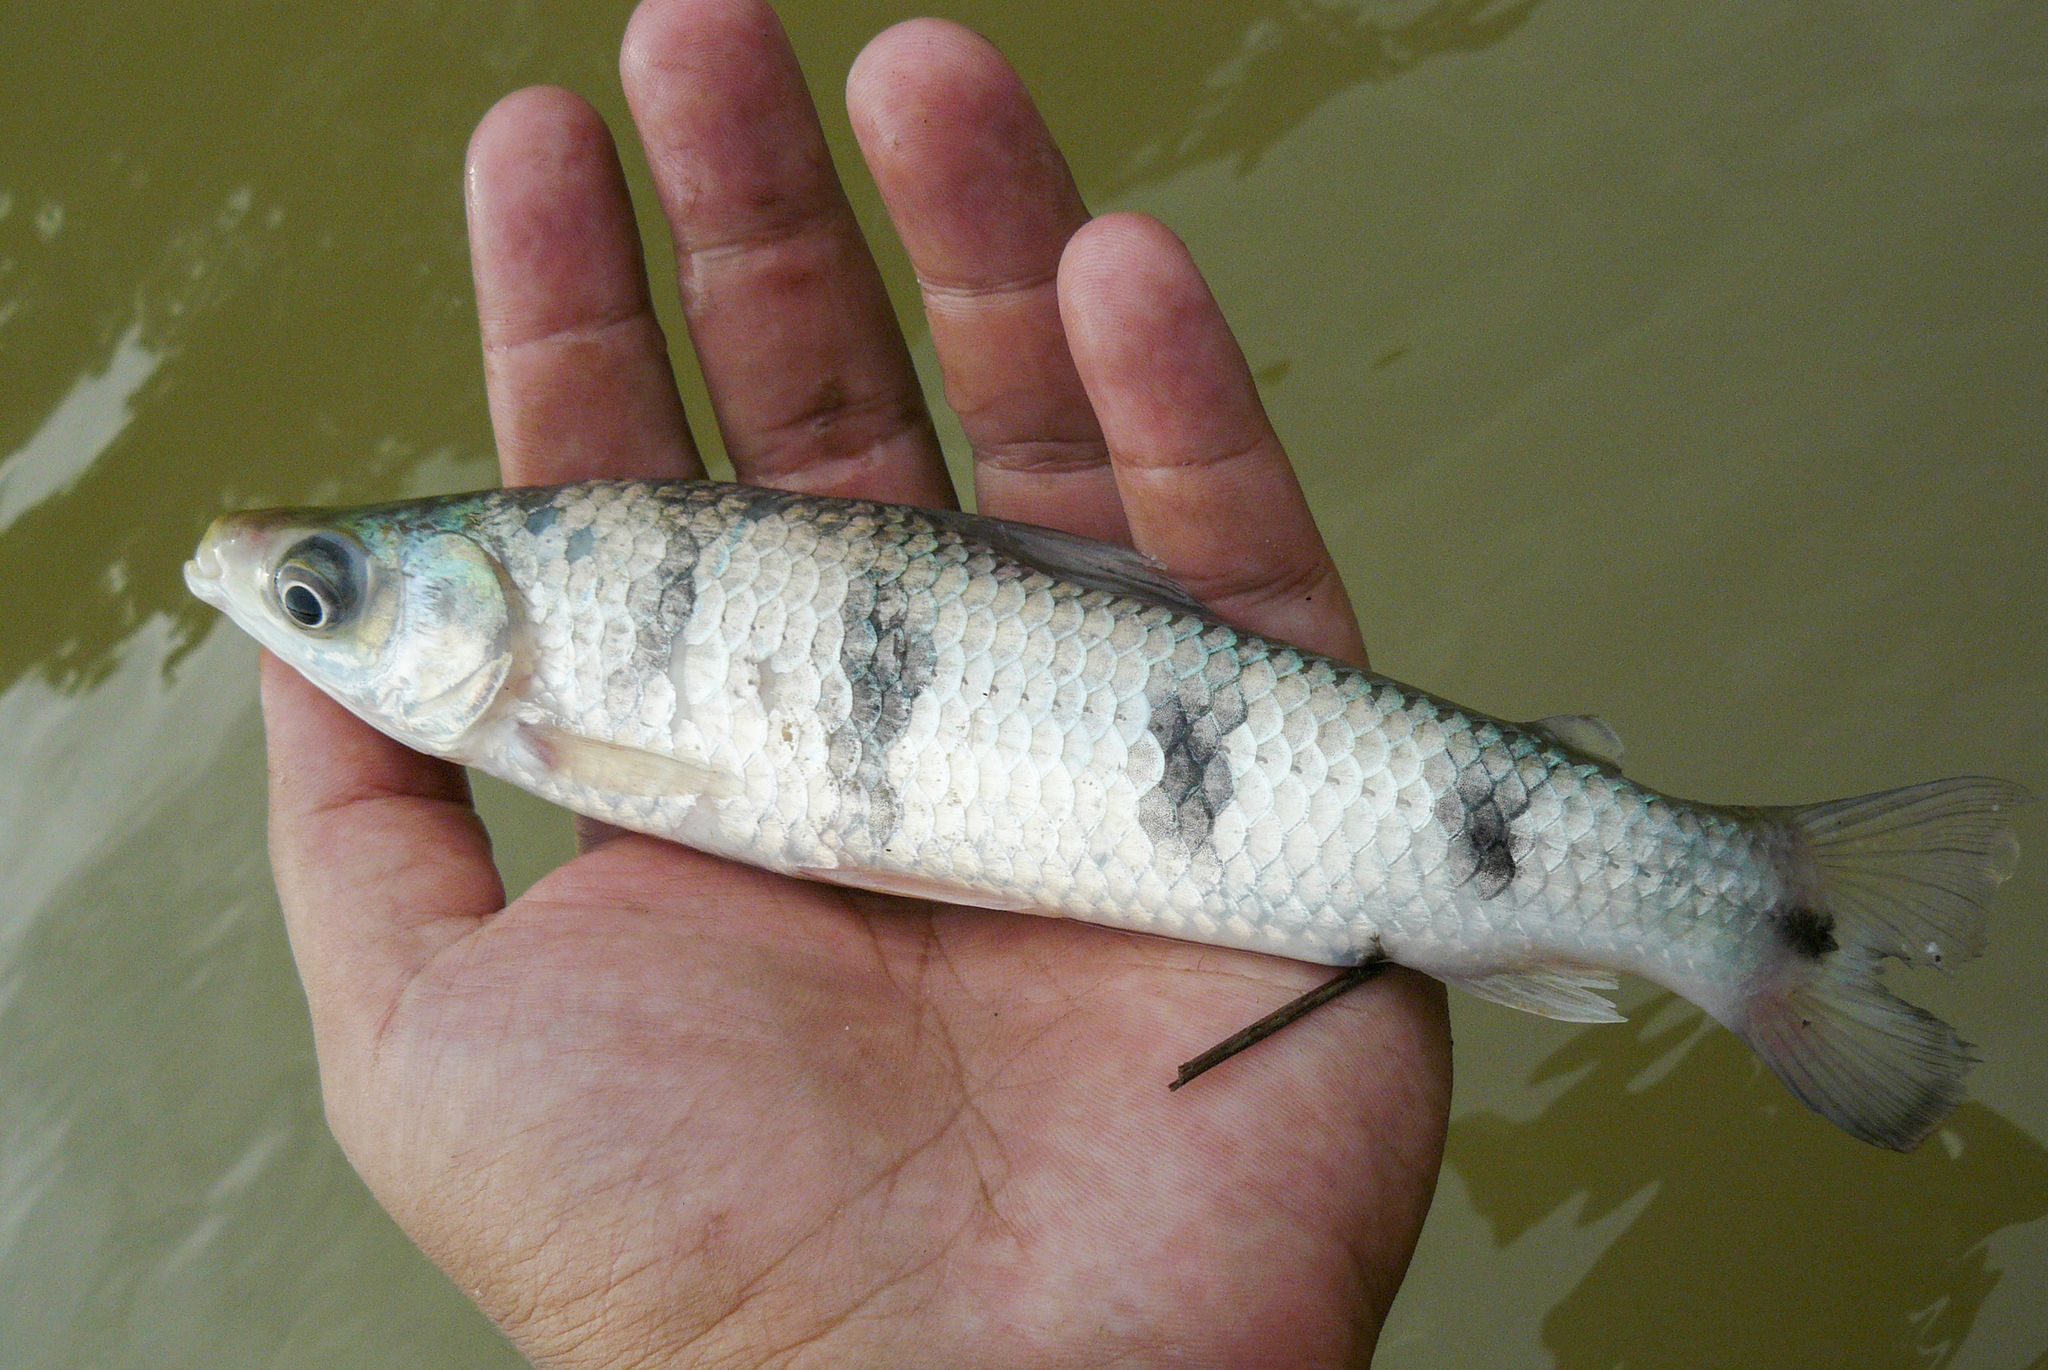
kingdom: Animalia
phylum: Chordata
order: Characiformes
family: Anostomidae
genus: Schizodon
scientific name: Schizodon fasciatus
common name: Characin
